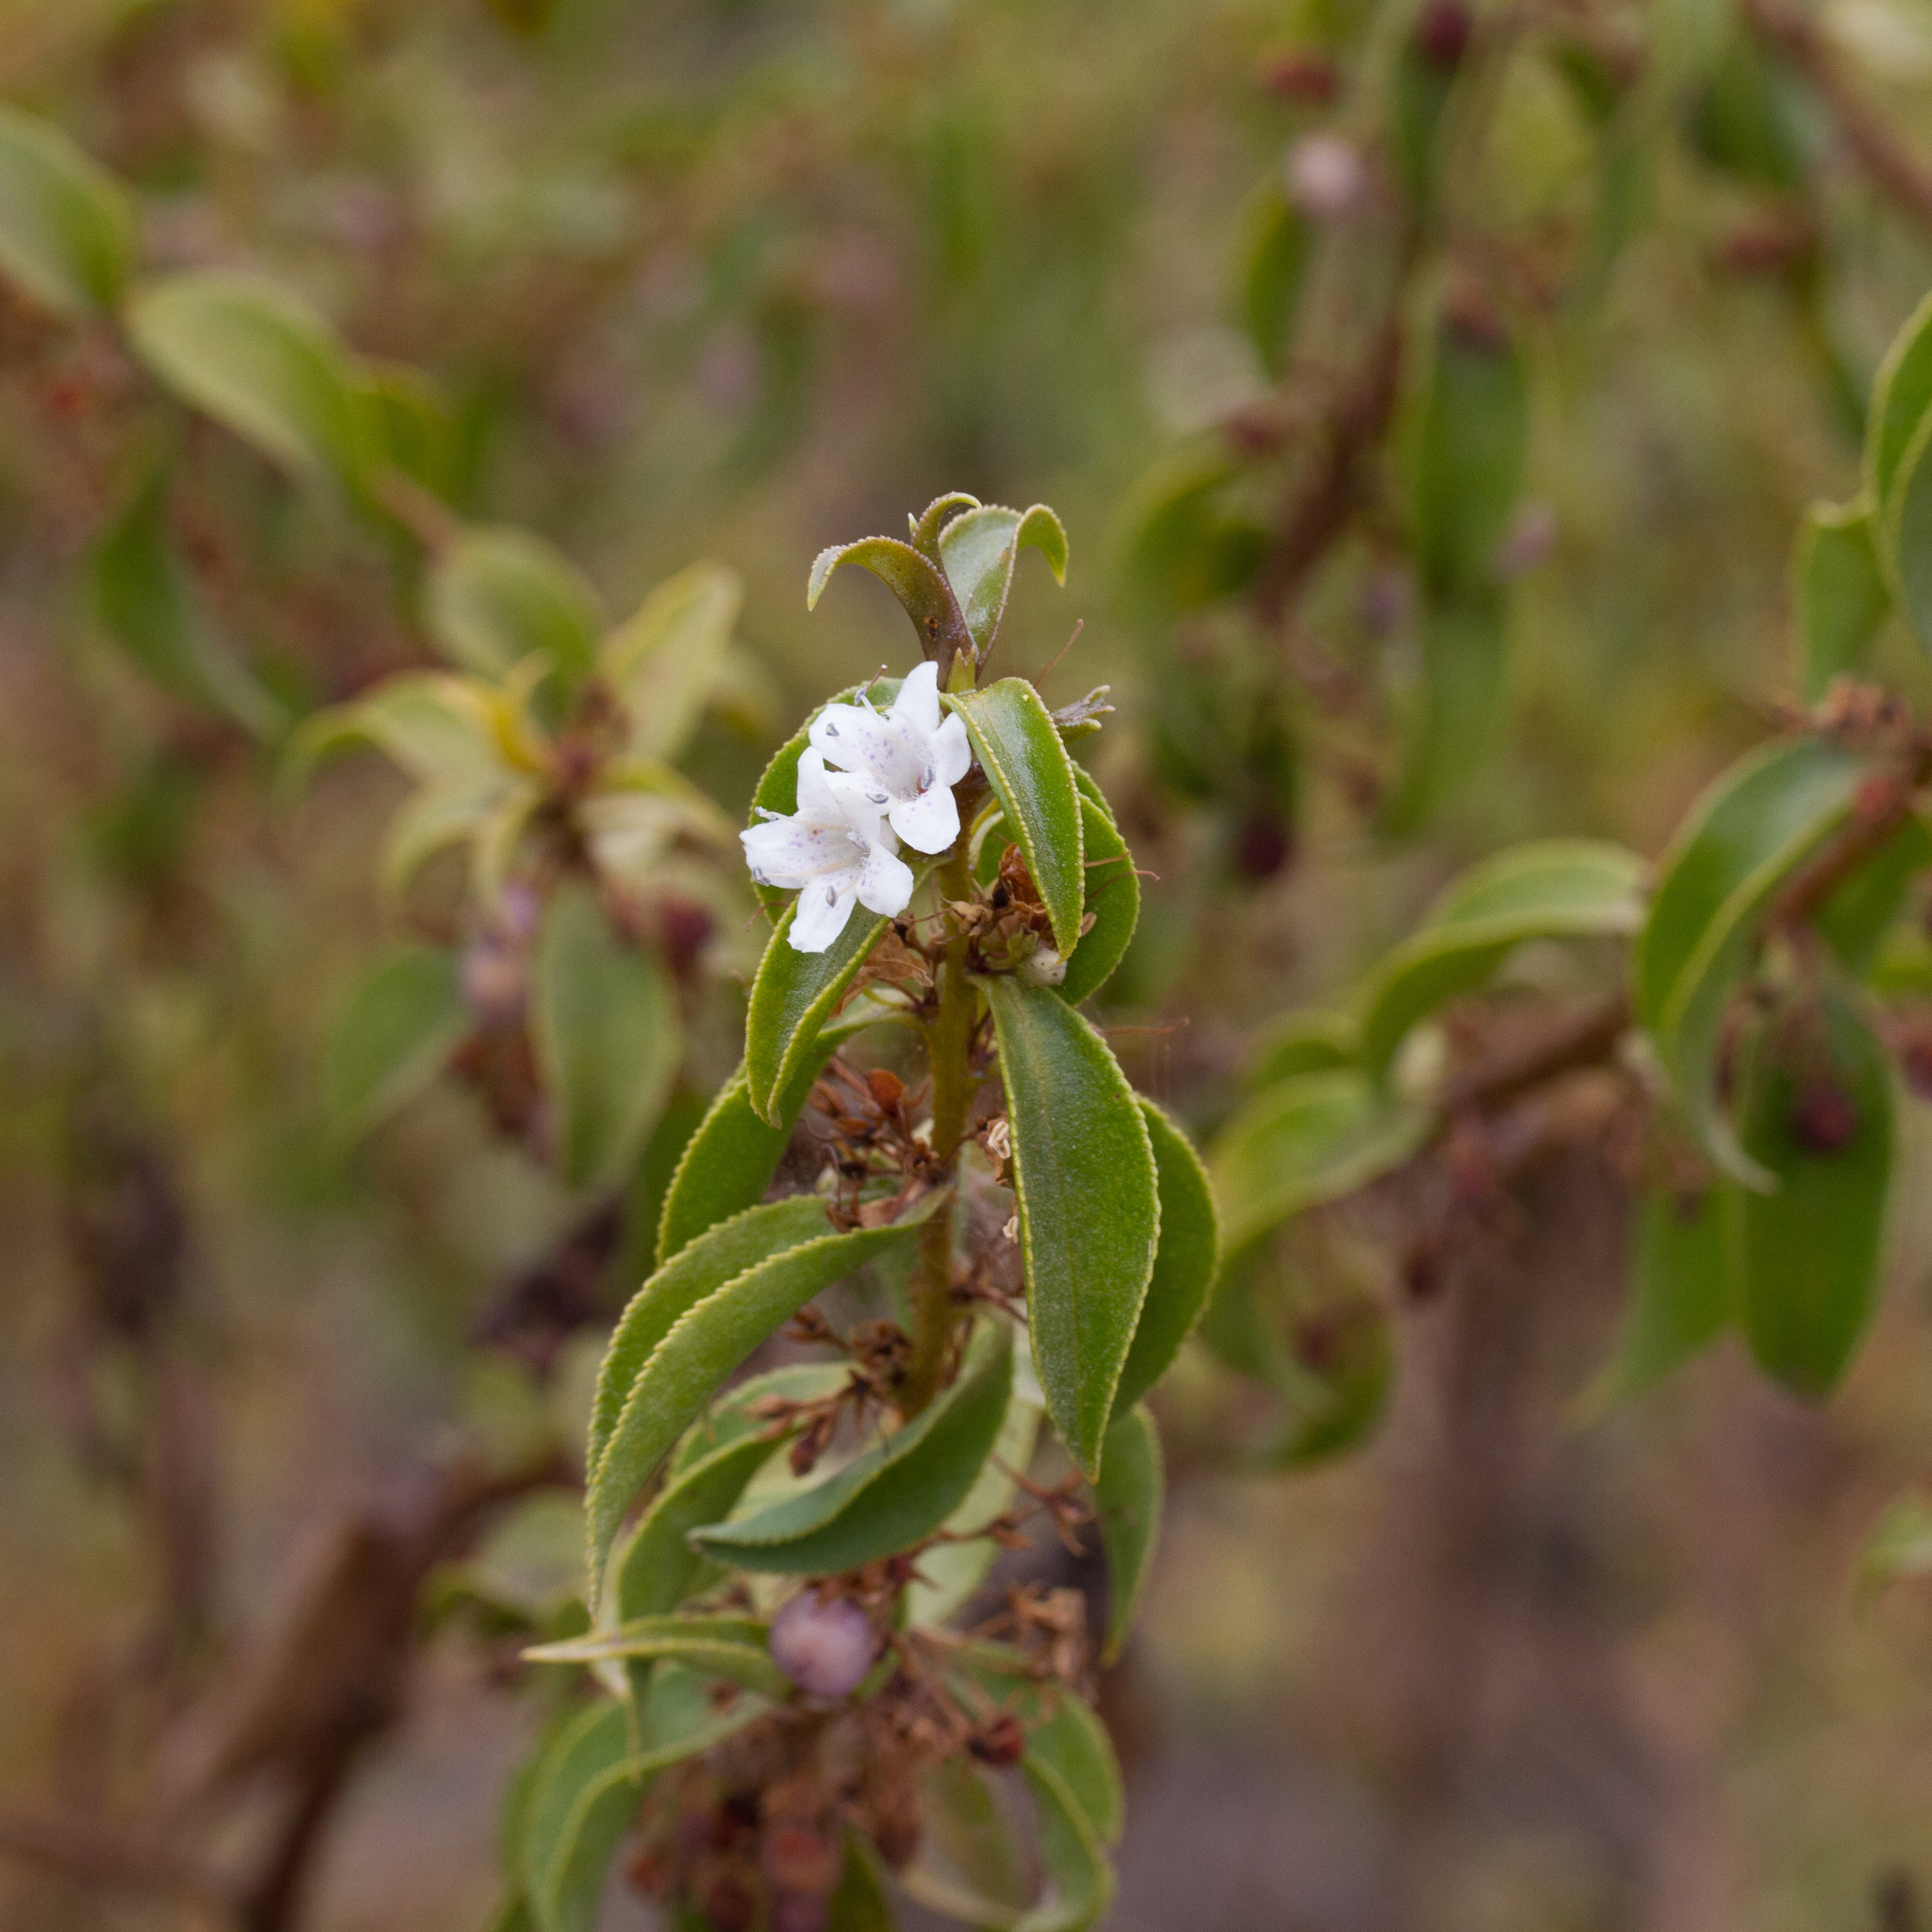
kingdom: Plantae
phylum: Tracheophyta
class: Magnoliopsida
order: Lamiales
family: Scrophulariaceae
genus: Myoporum
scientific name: Myoporum viscosum
